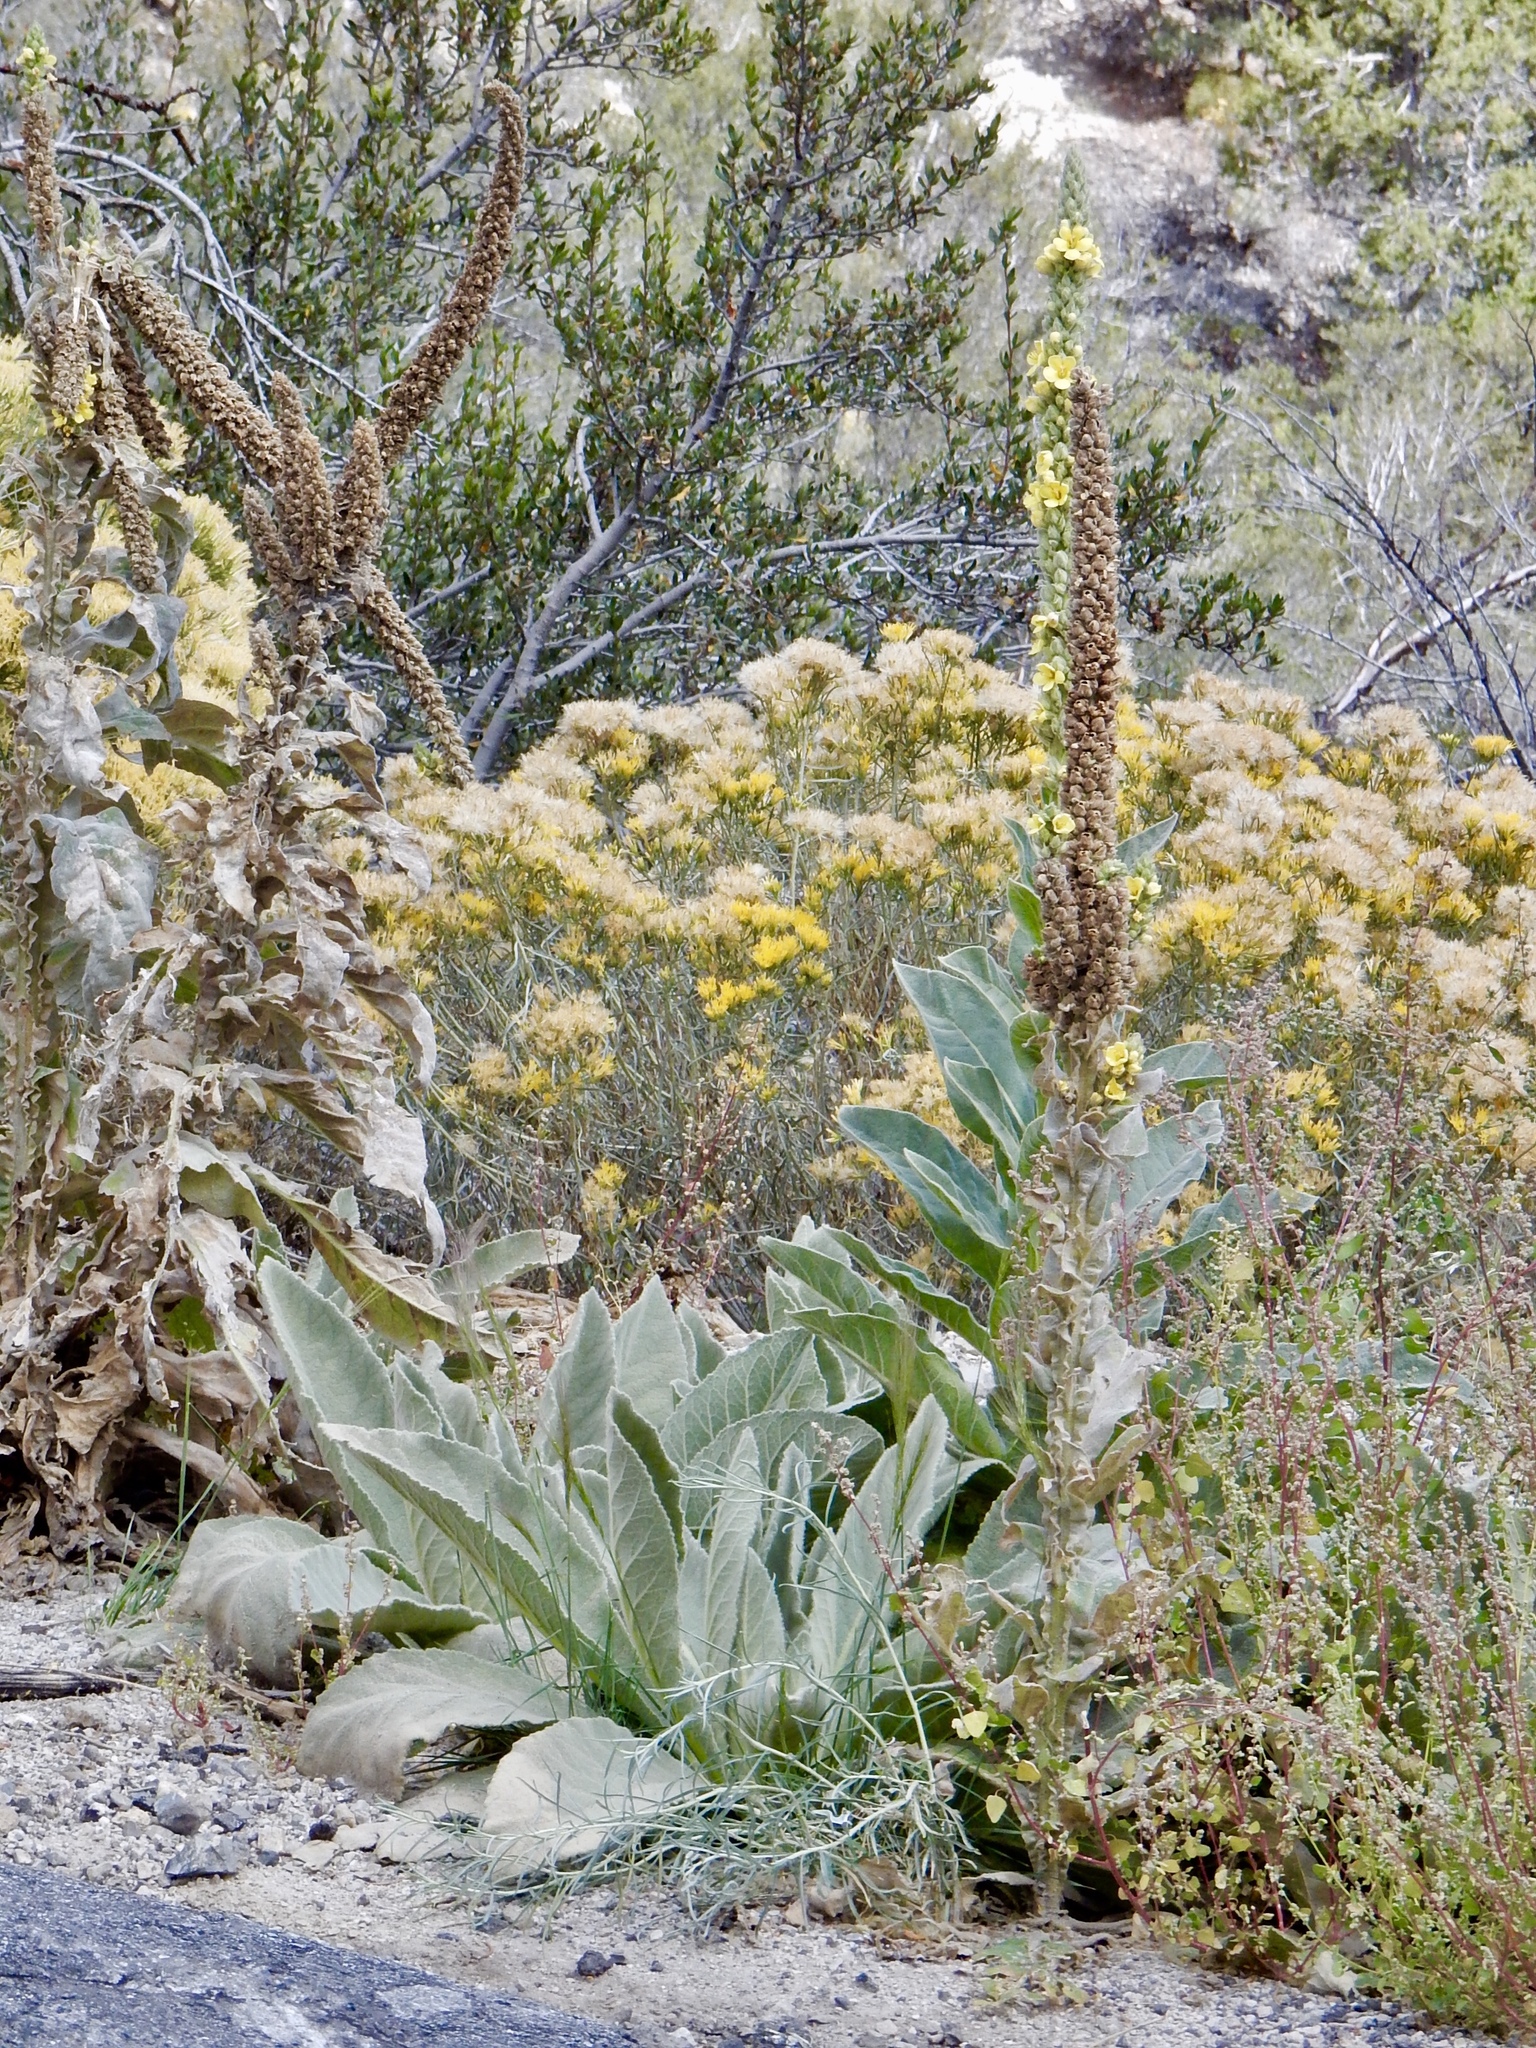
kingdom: Plantae
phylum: Tracheophyta
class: Magnoliopsida
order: Lamiales
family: Scrophulariaceae
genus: Verbascum
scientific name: Verbascum thapsus
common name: Common mullein
